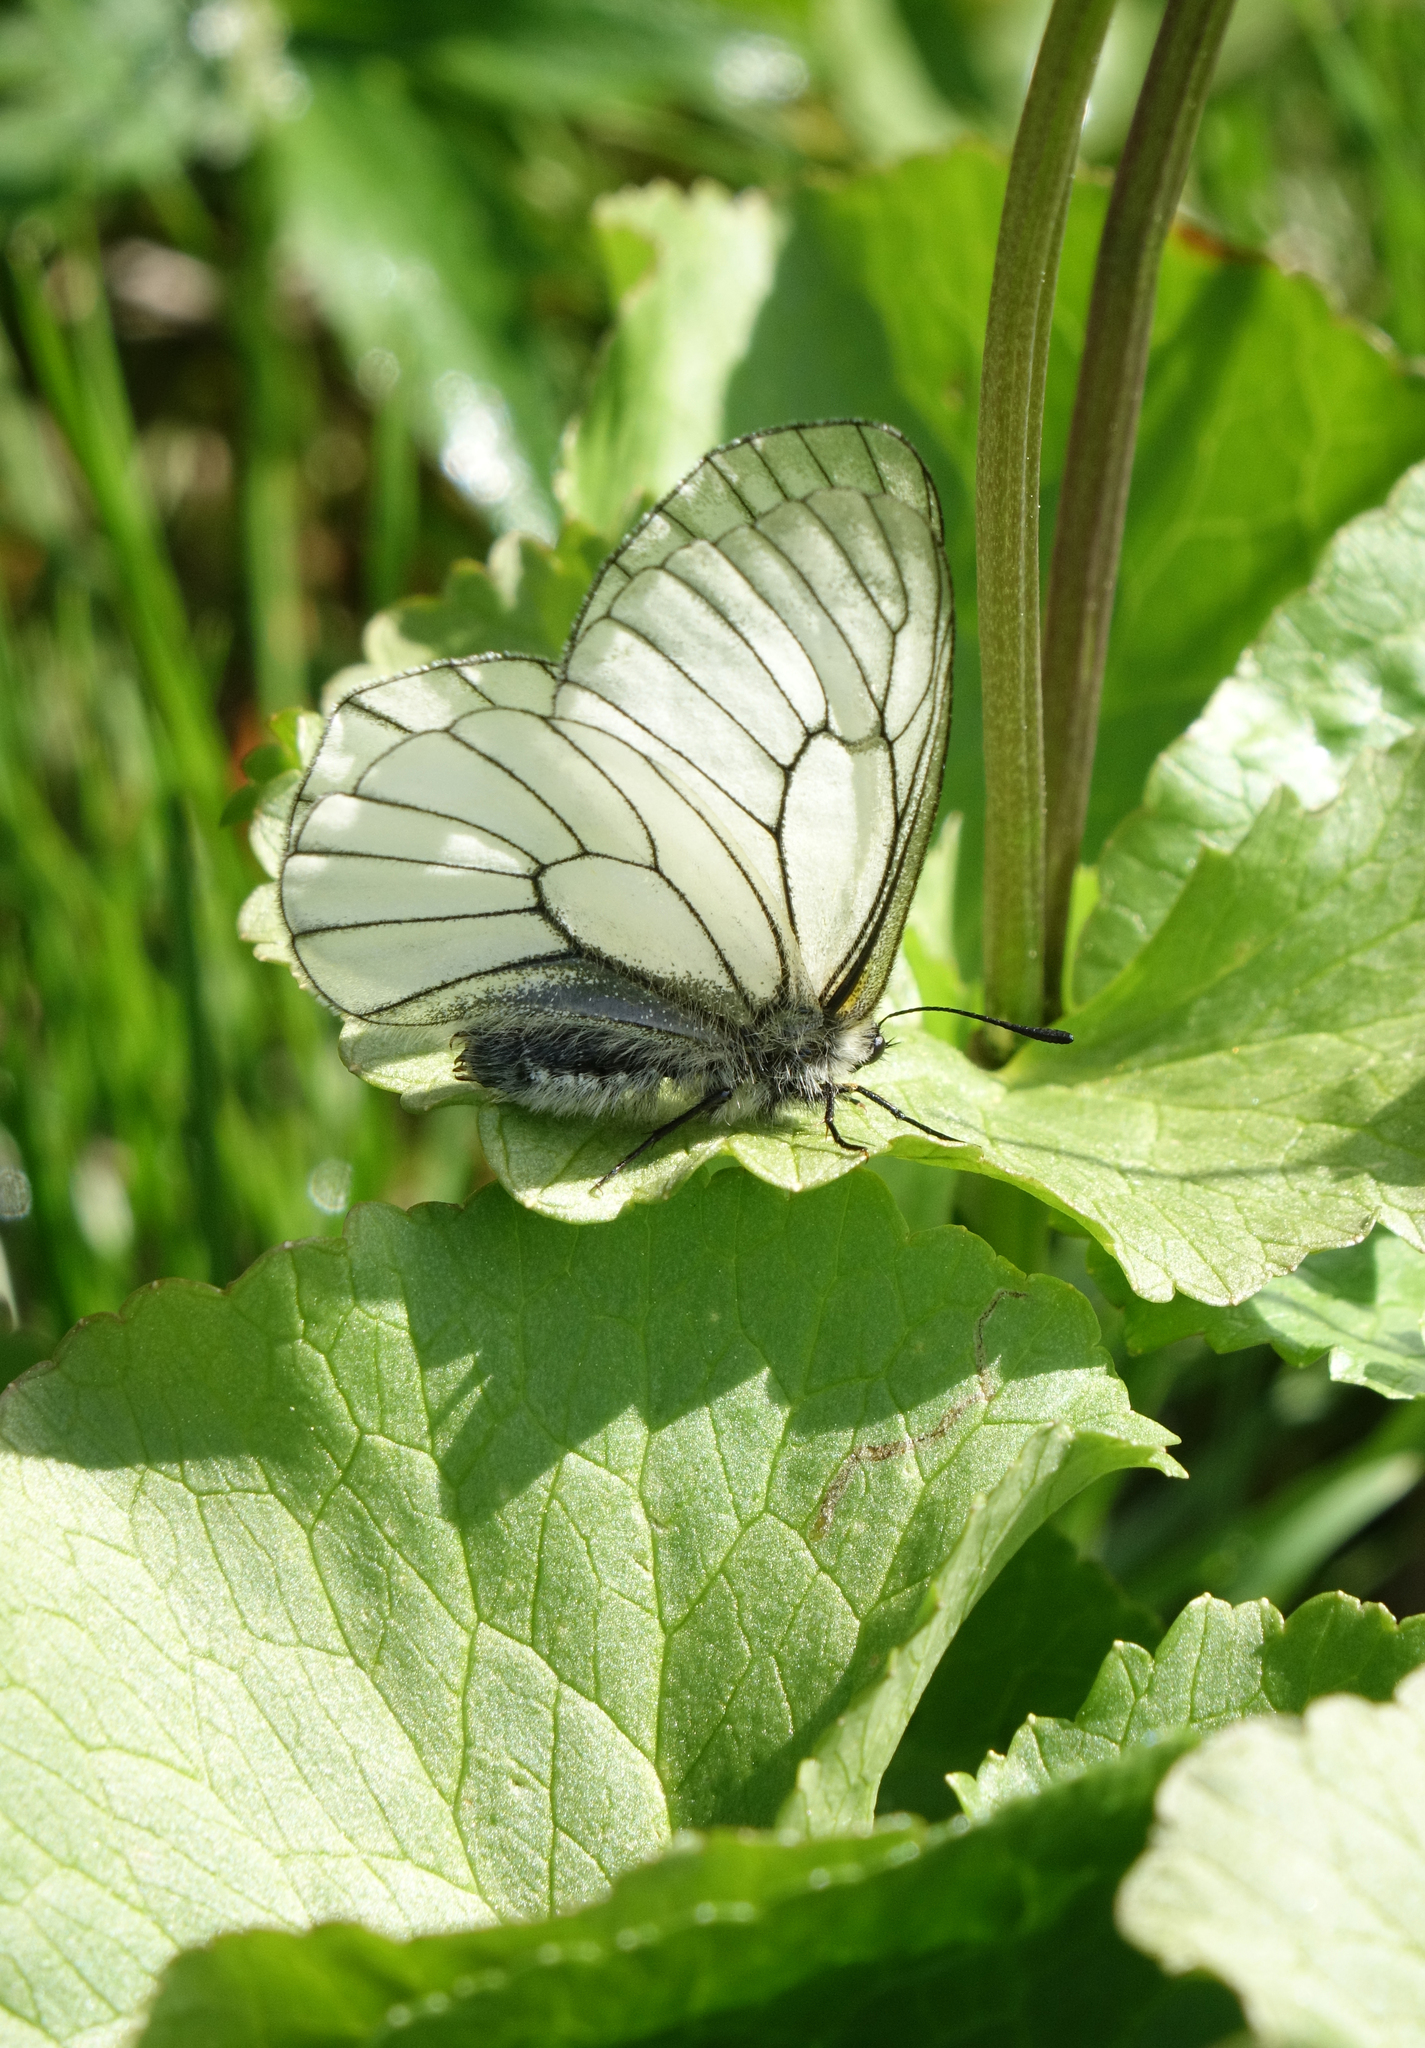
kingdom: Animalia
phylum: Arthropoda
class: Insecta
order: Lepidoptera
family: Papilionidae
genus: Parnassius
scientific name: Parnassius stubbendorfii
